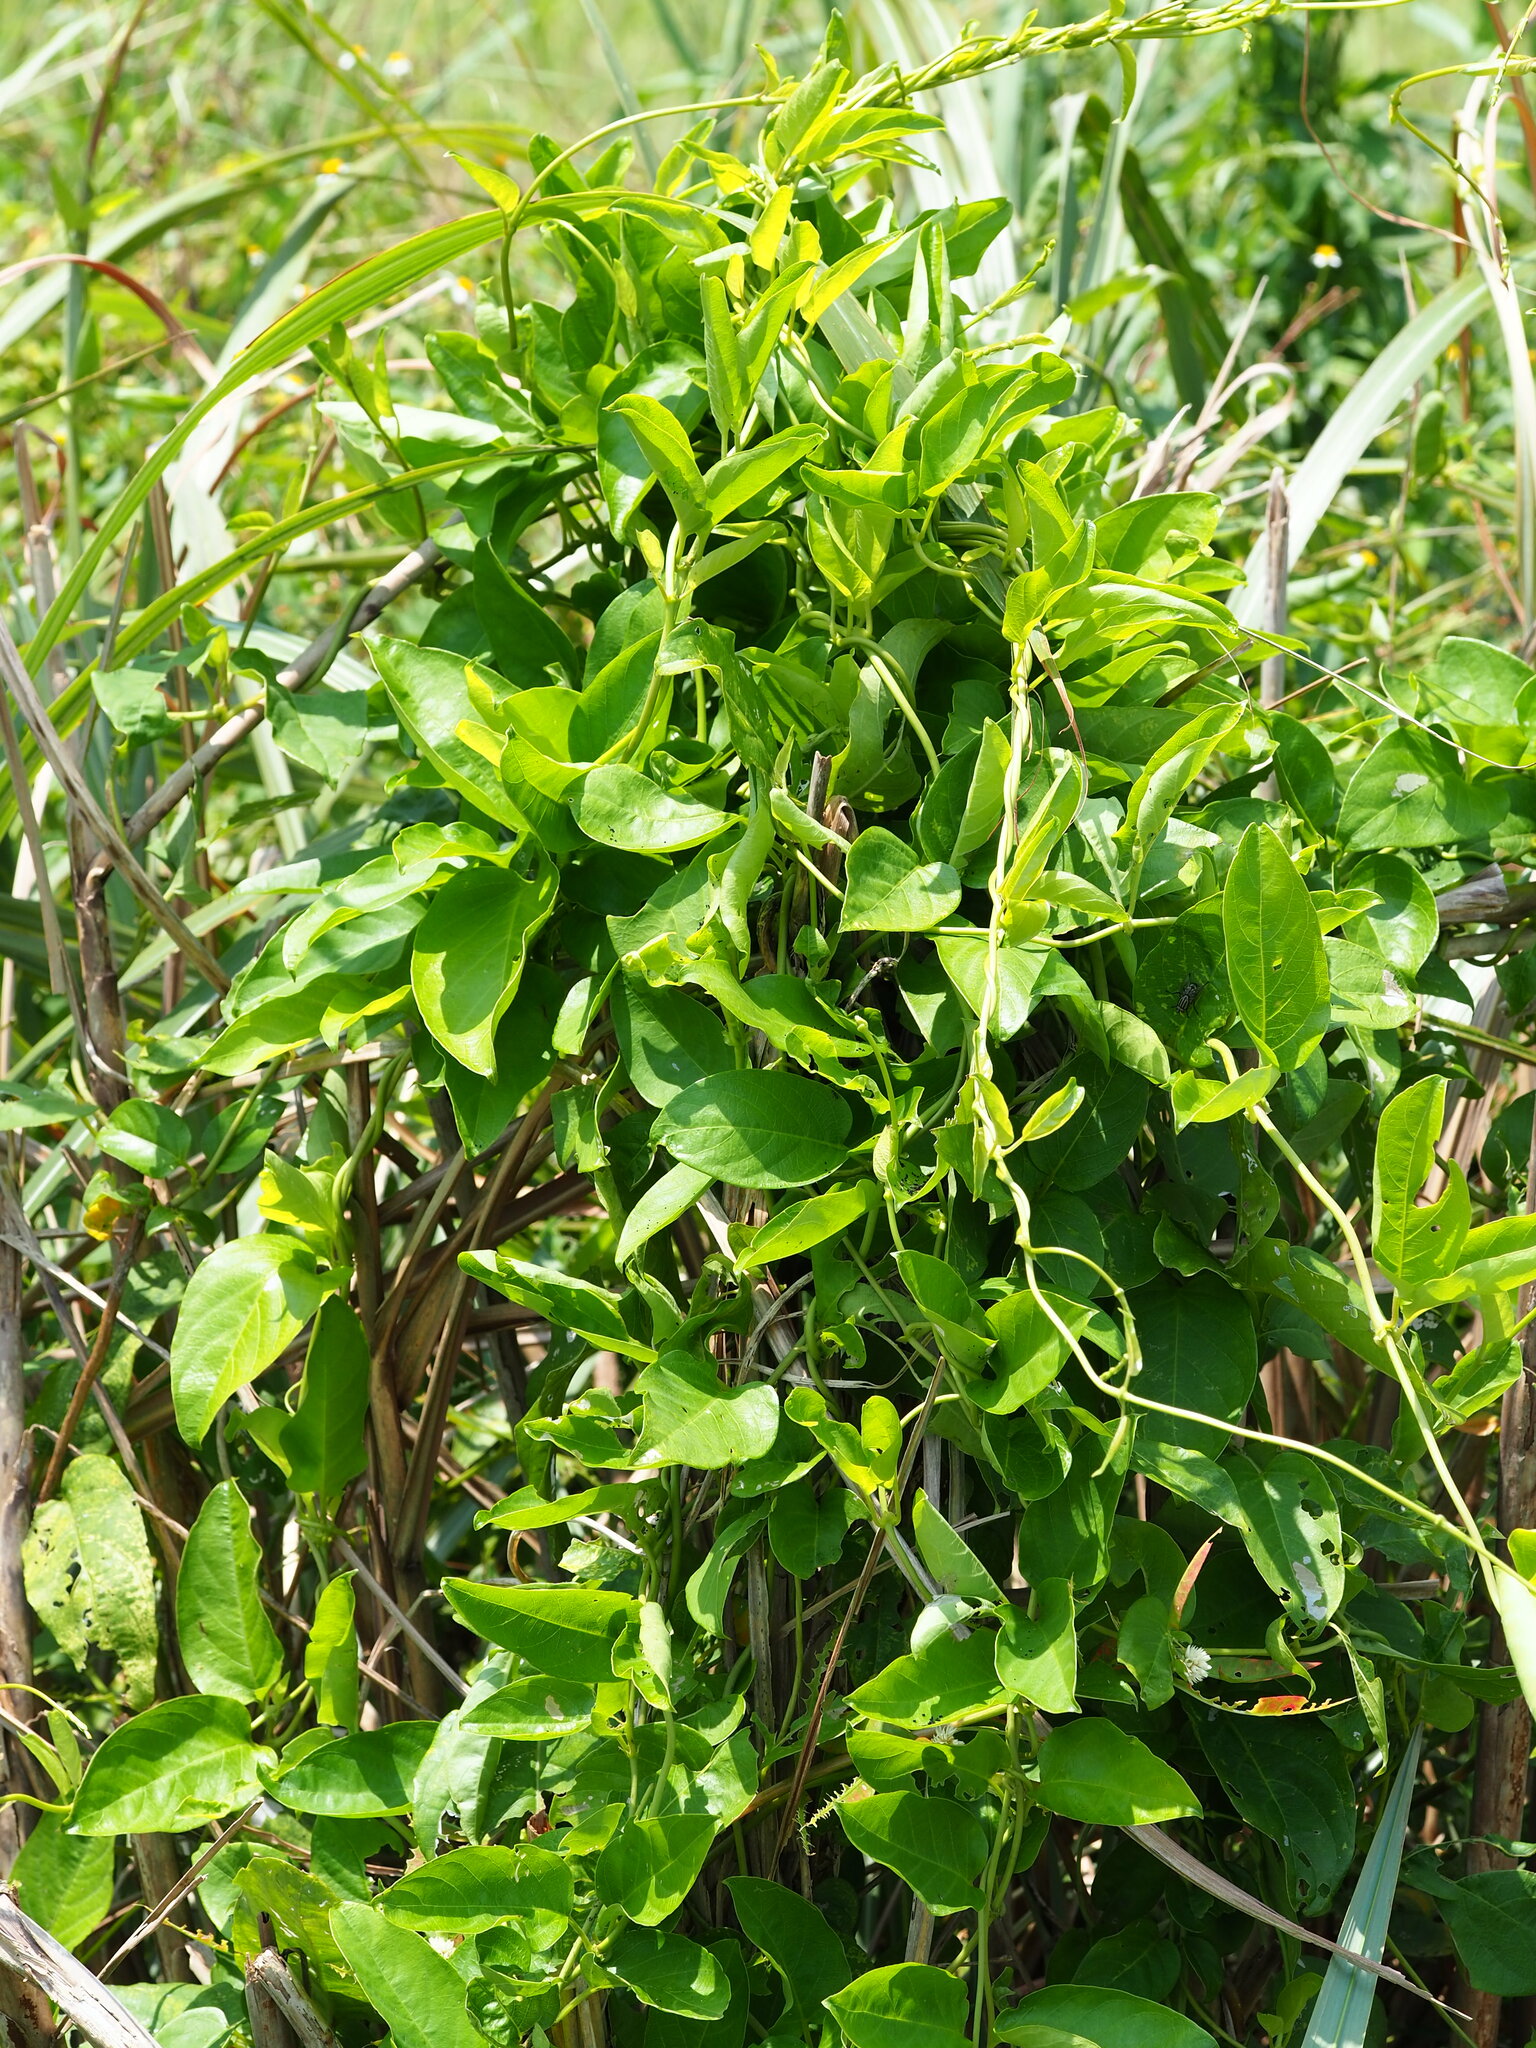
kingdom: Plantae
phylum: Tracheophyta
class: Magnoliopsida
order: Gentianales
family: Apocynaceae
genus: Vincetoxicum
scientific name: Vincetoxicum hirsutum
